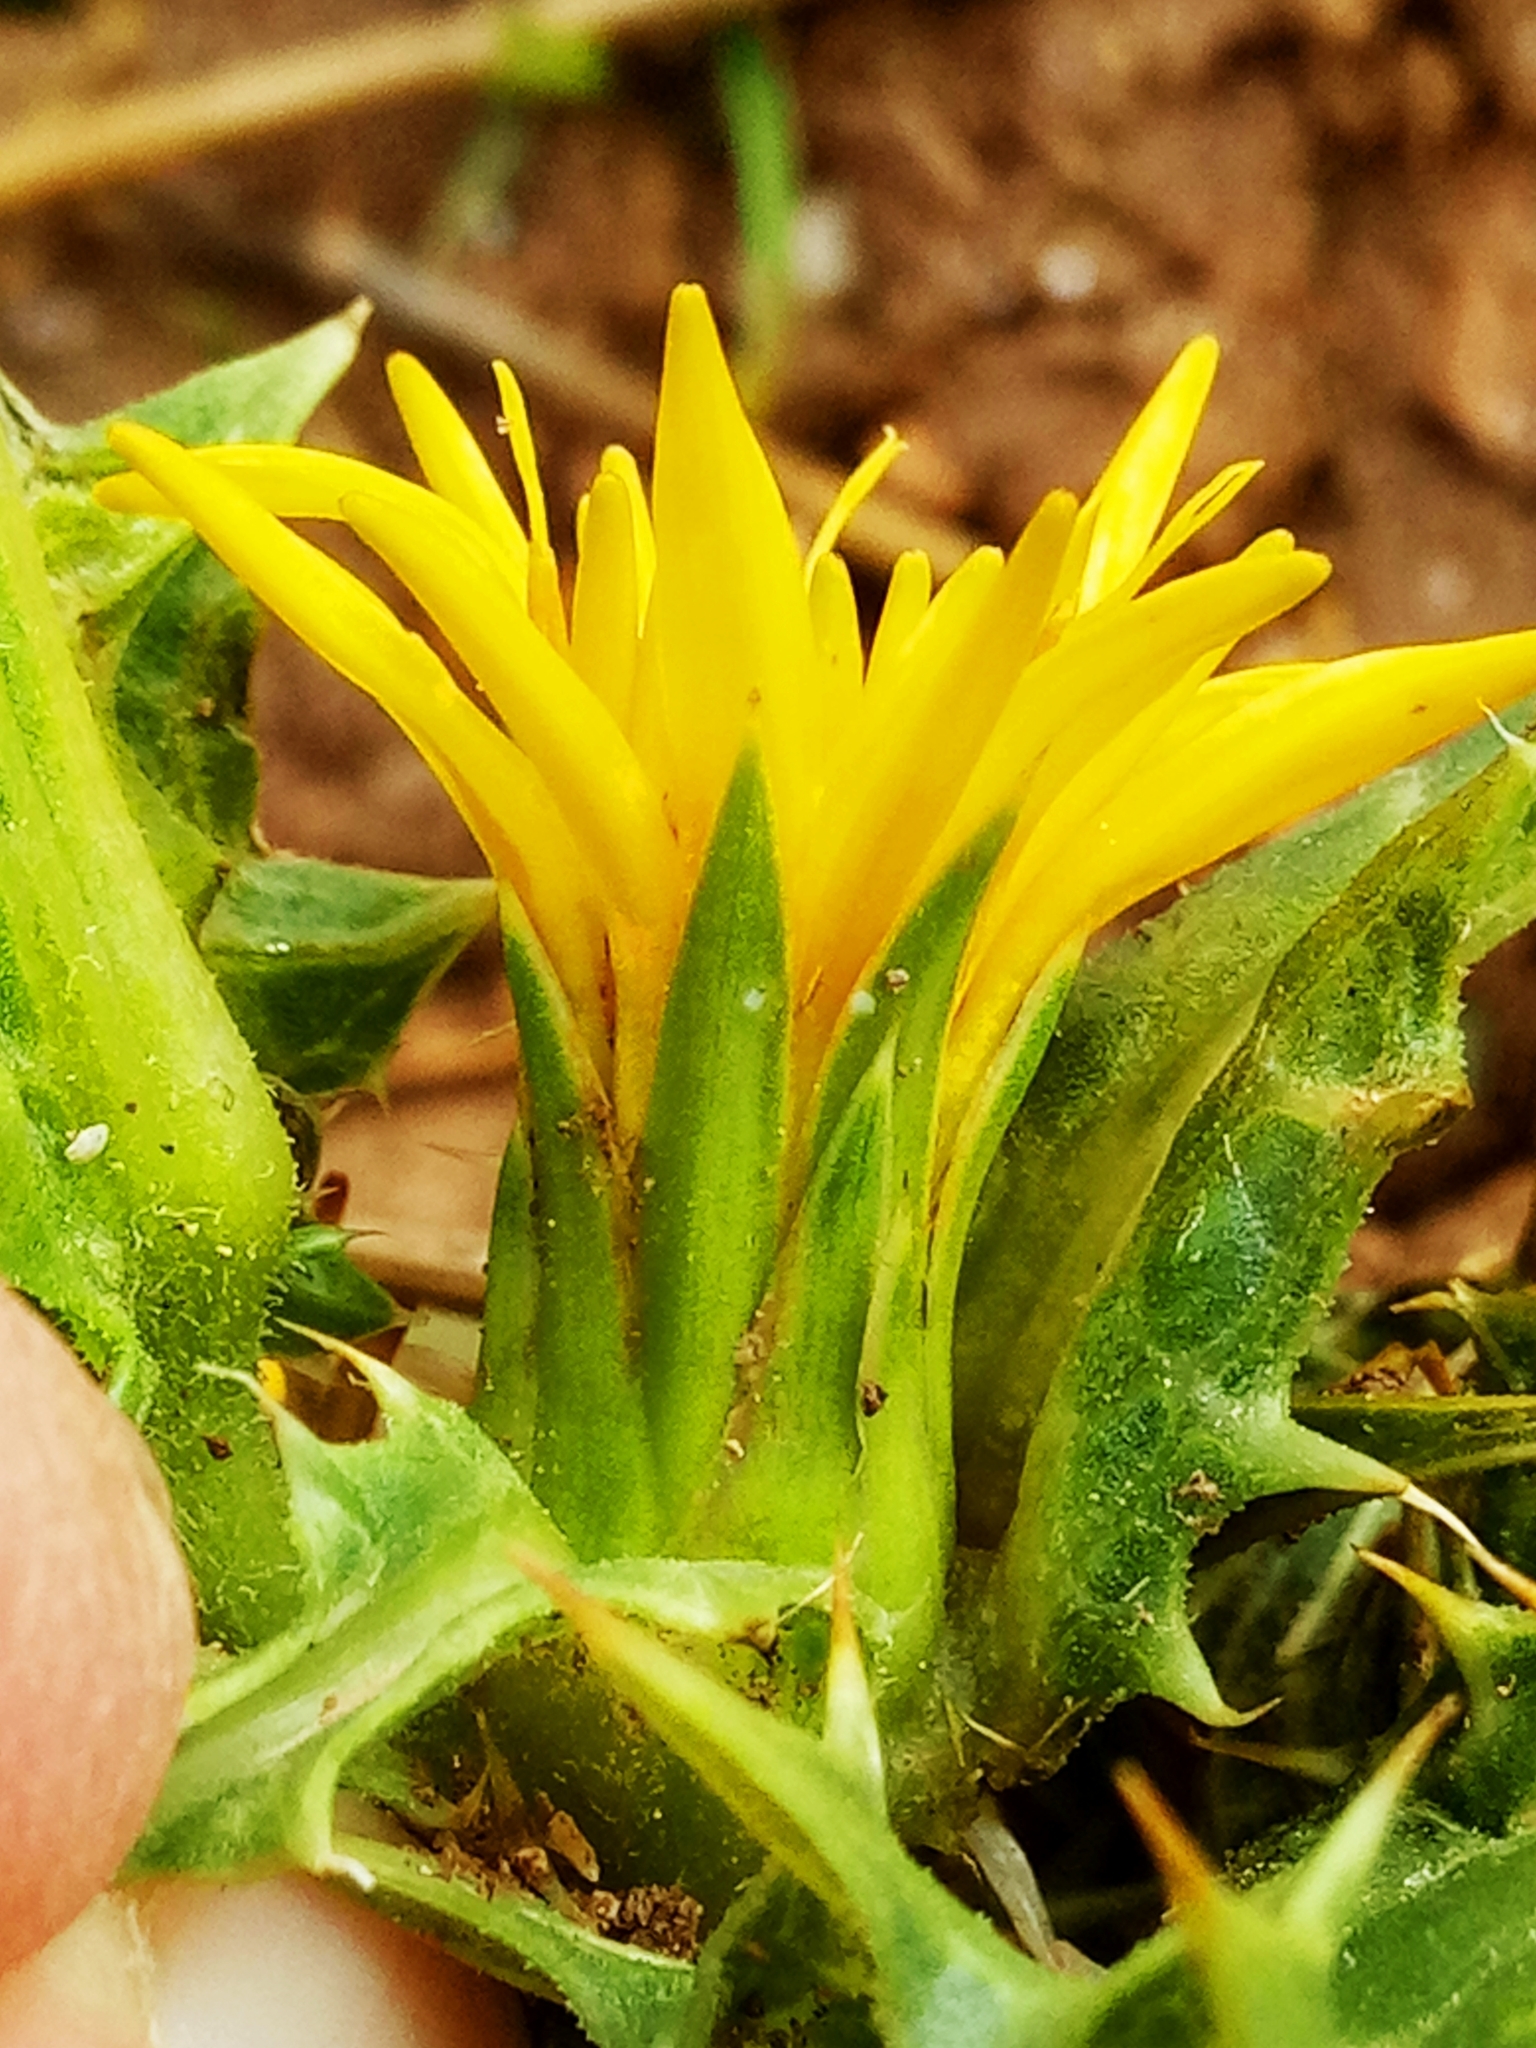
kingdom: Plantae
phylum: Tracheophyta
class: Magnoliopsida
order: Asterales
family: Asteraceae
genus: Scolymus
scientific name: Scolymus hispanicus
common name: Golden thistle
